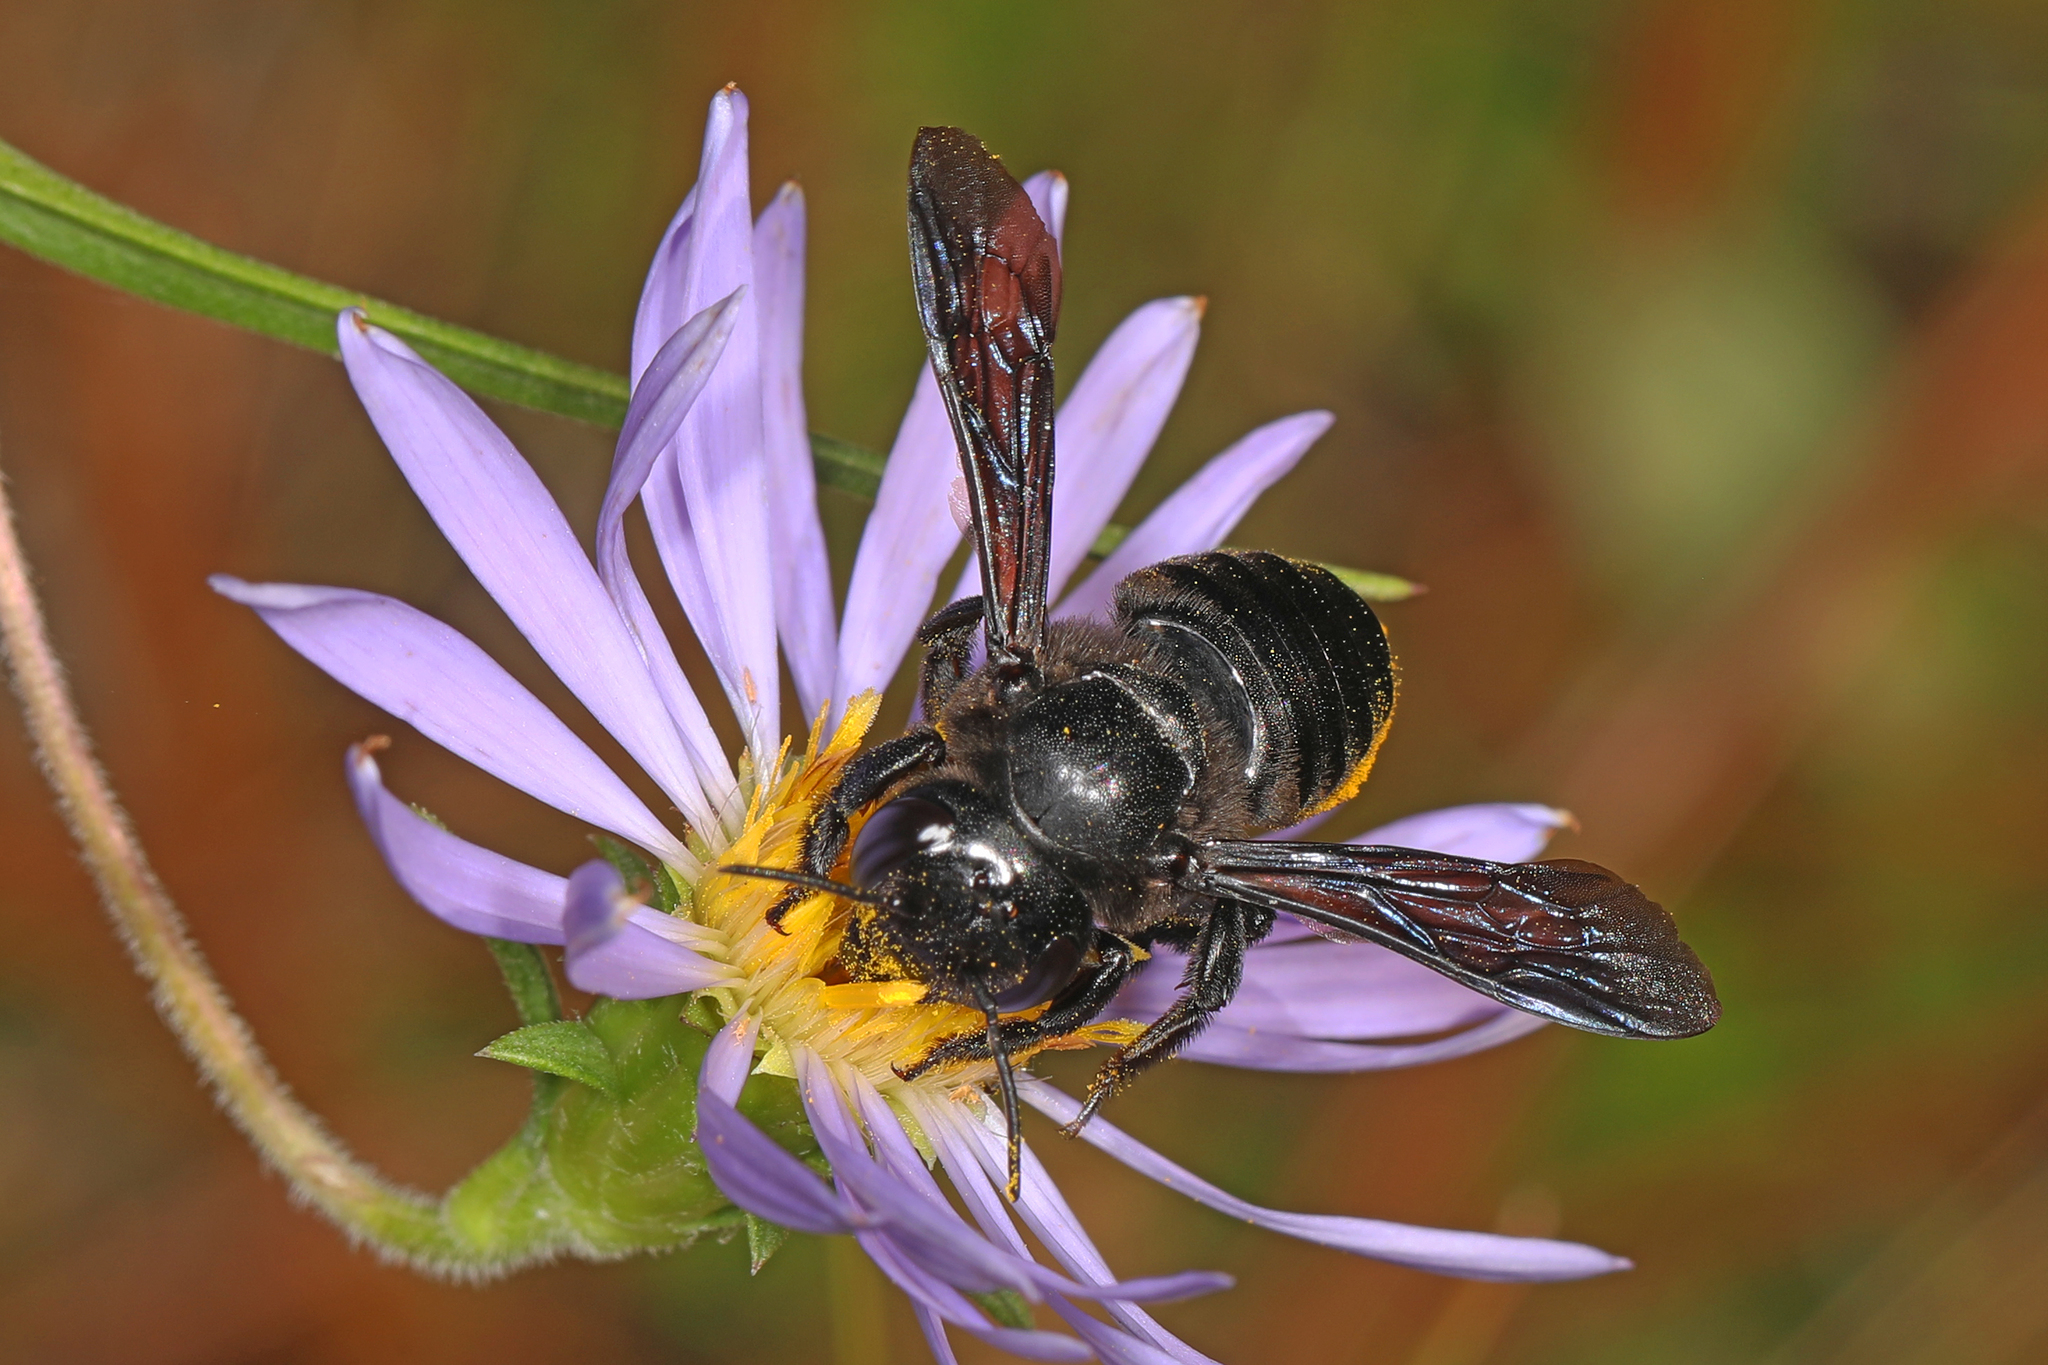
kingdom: Animalia
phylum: Arthropoda
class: Insecta
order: Hymenoptera
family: Megachilidae
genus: Megachile
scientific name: Megachile xylocopoides
